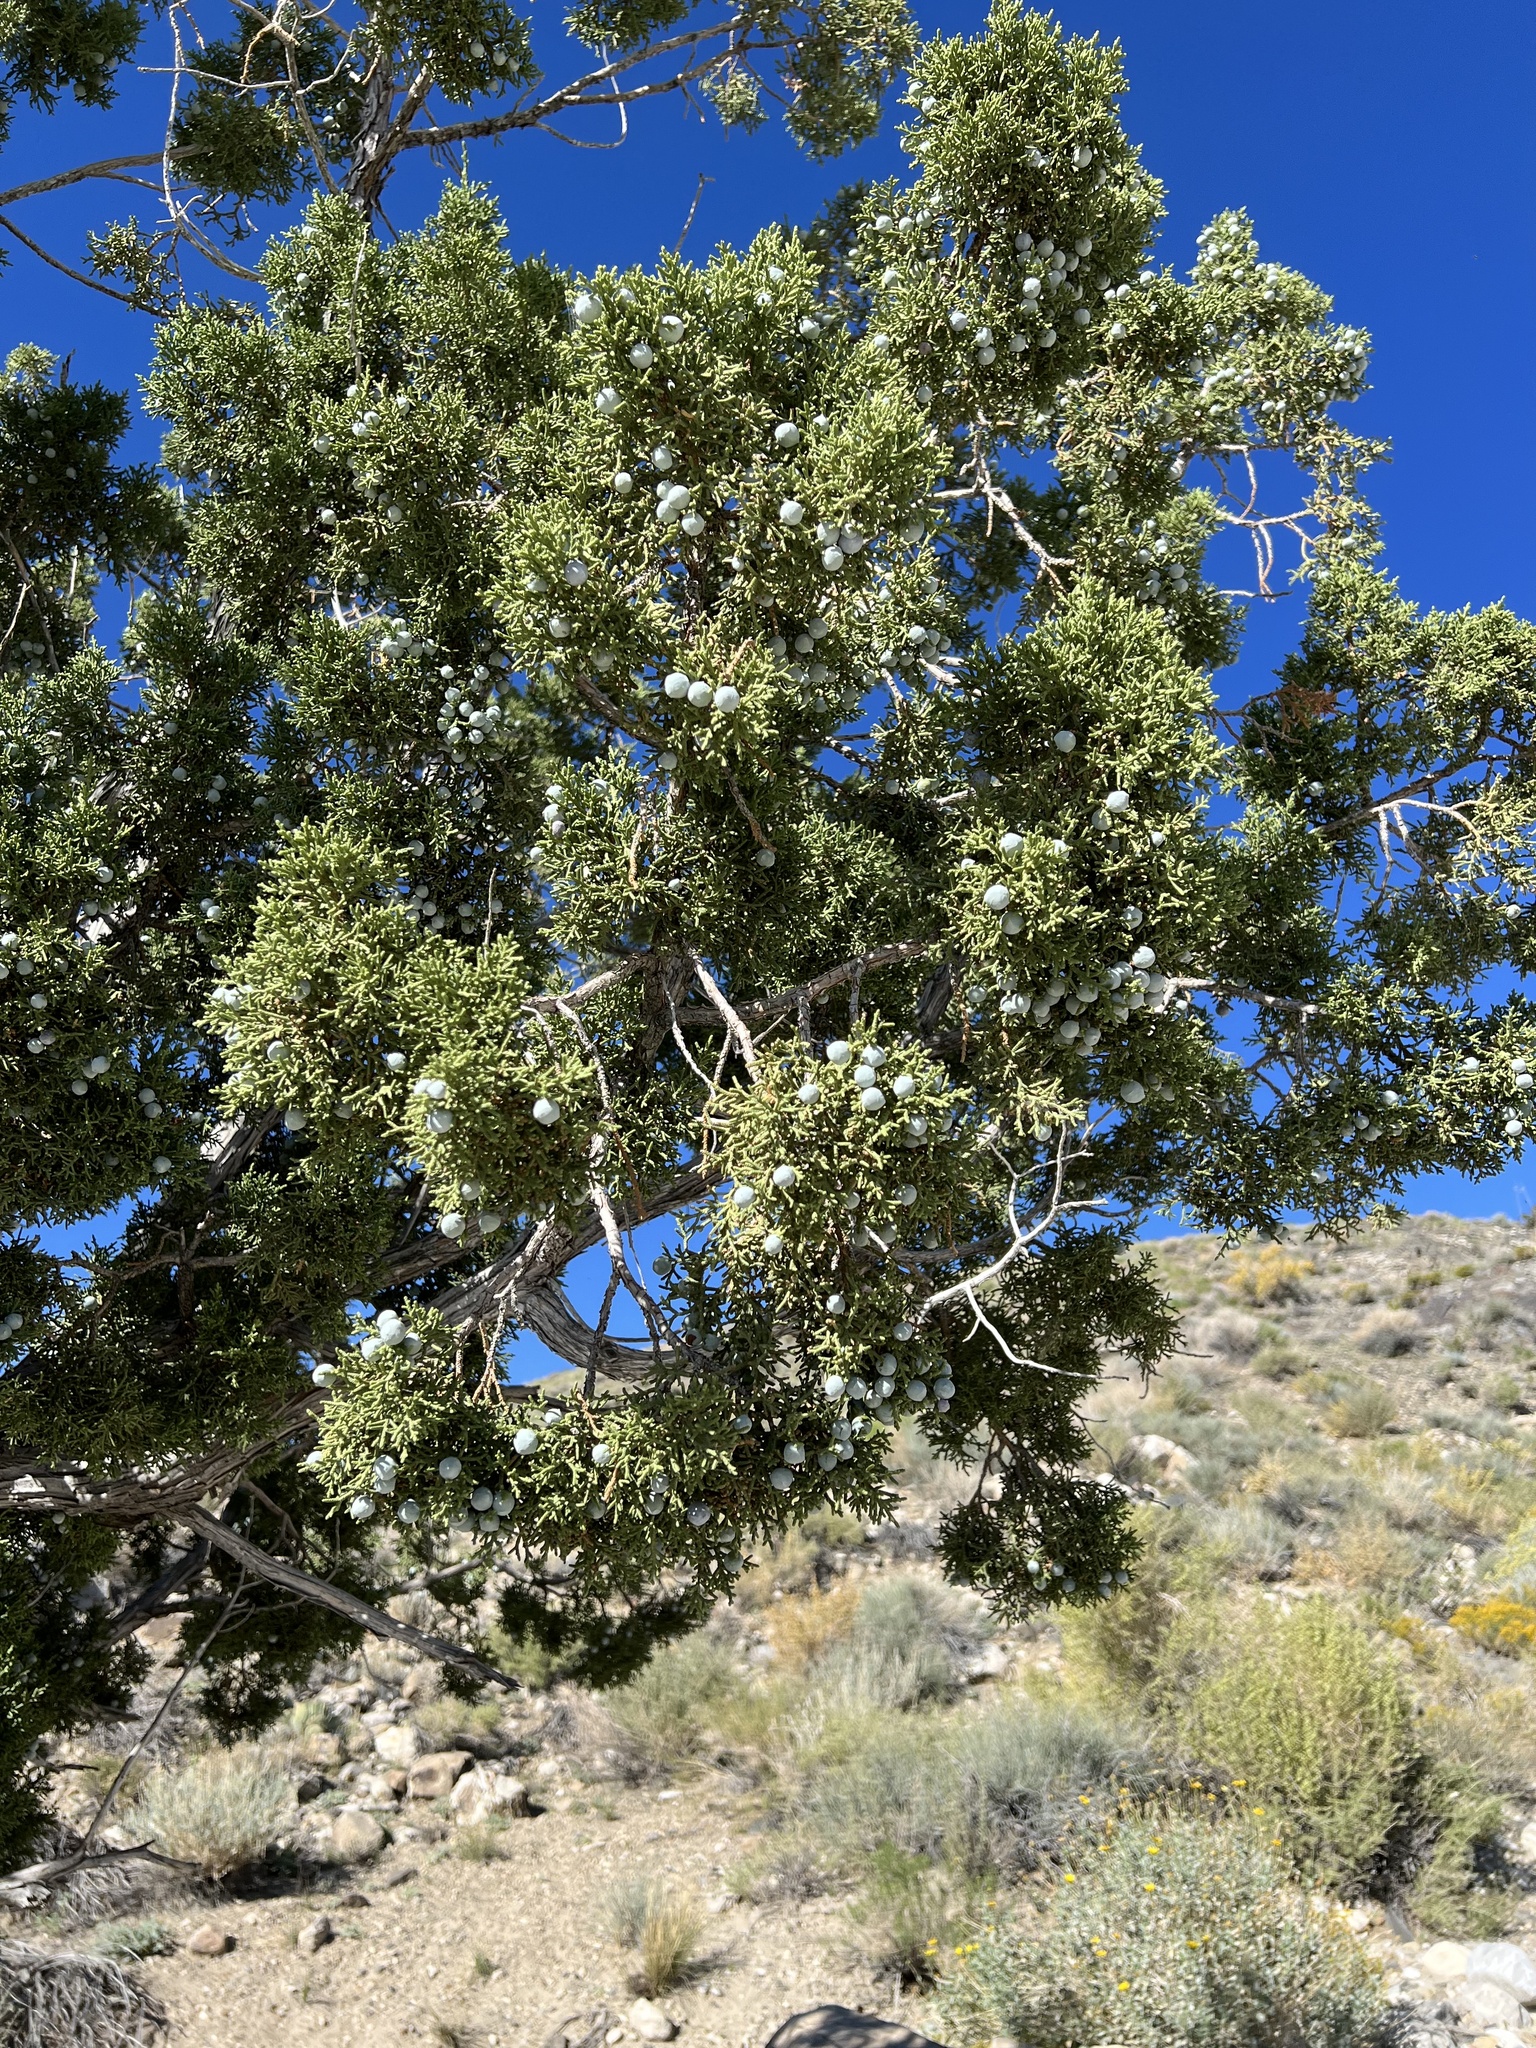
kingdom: Plantae
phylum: Tracheophyta
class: Pinopsida
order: Pinales
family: Cupressaceae
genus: Juniperus
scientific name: Juniperus osteosperma
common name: Utah juniper
